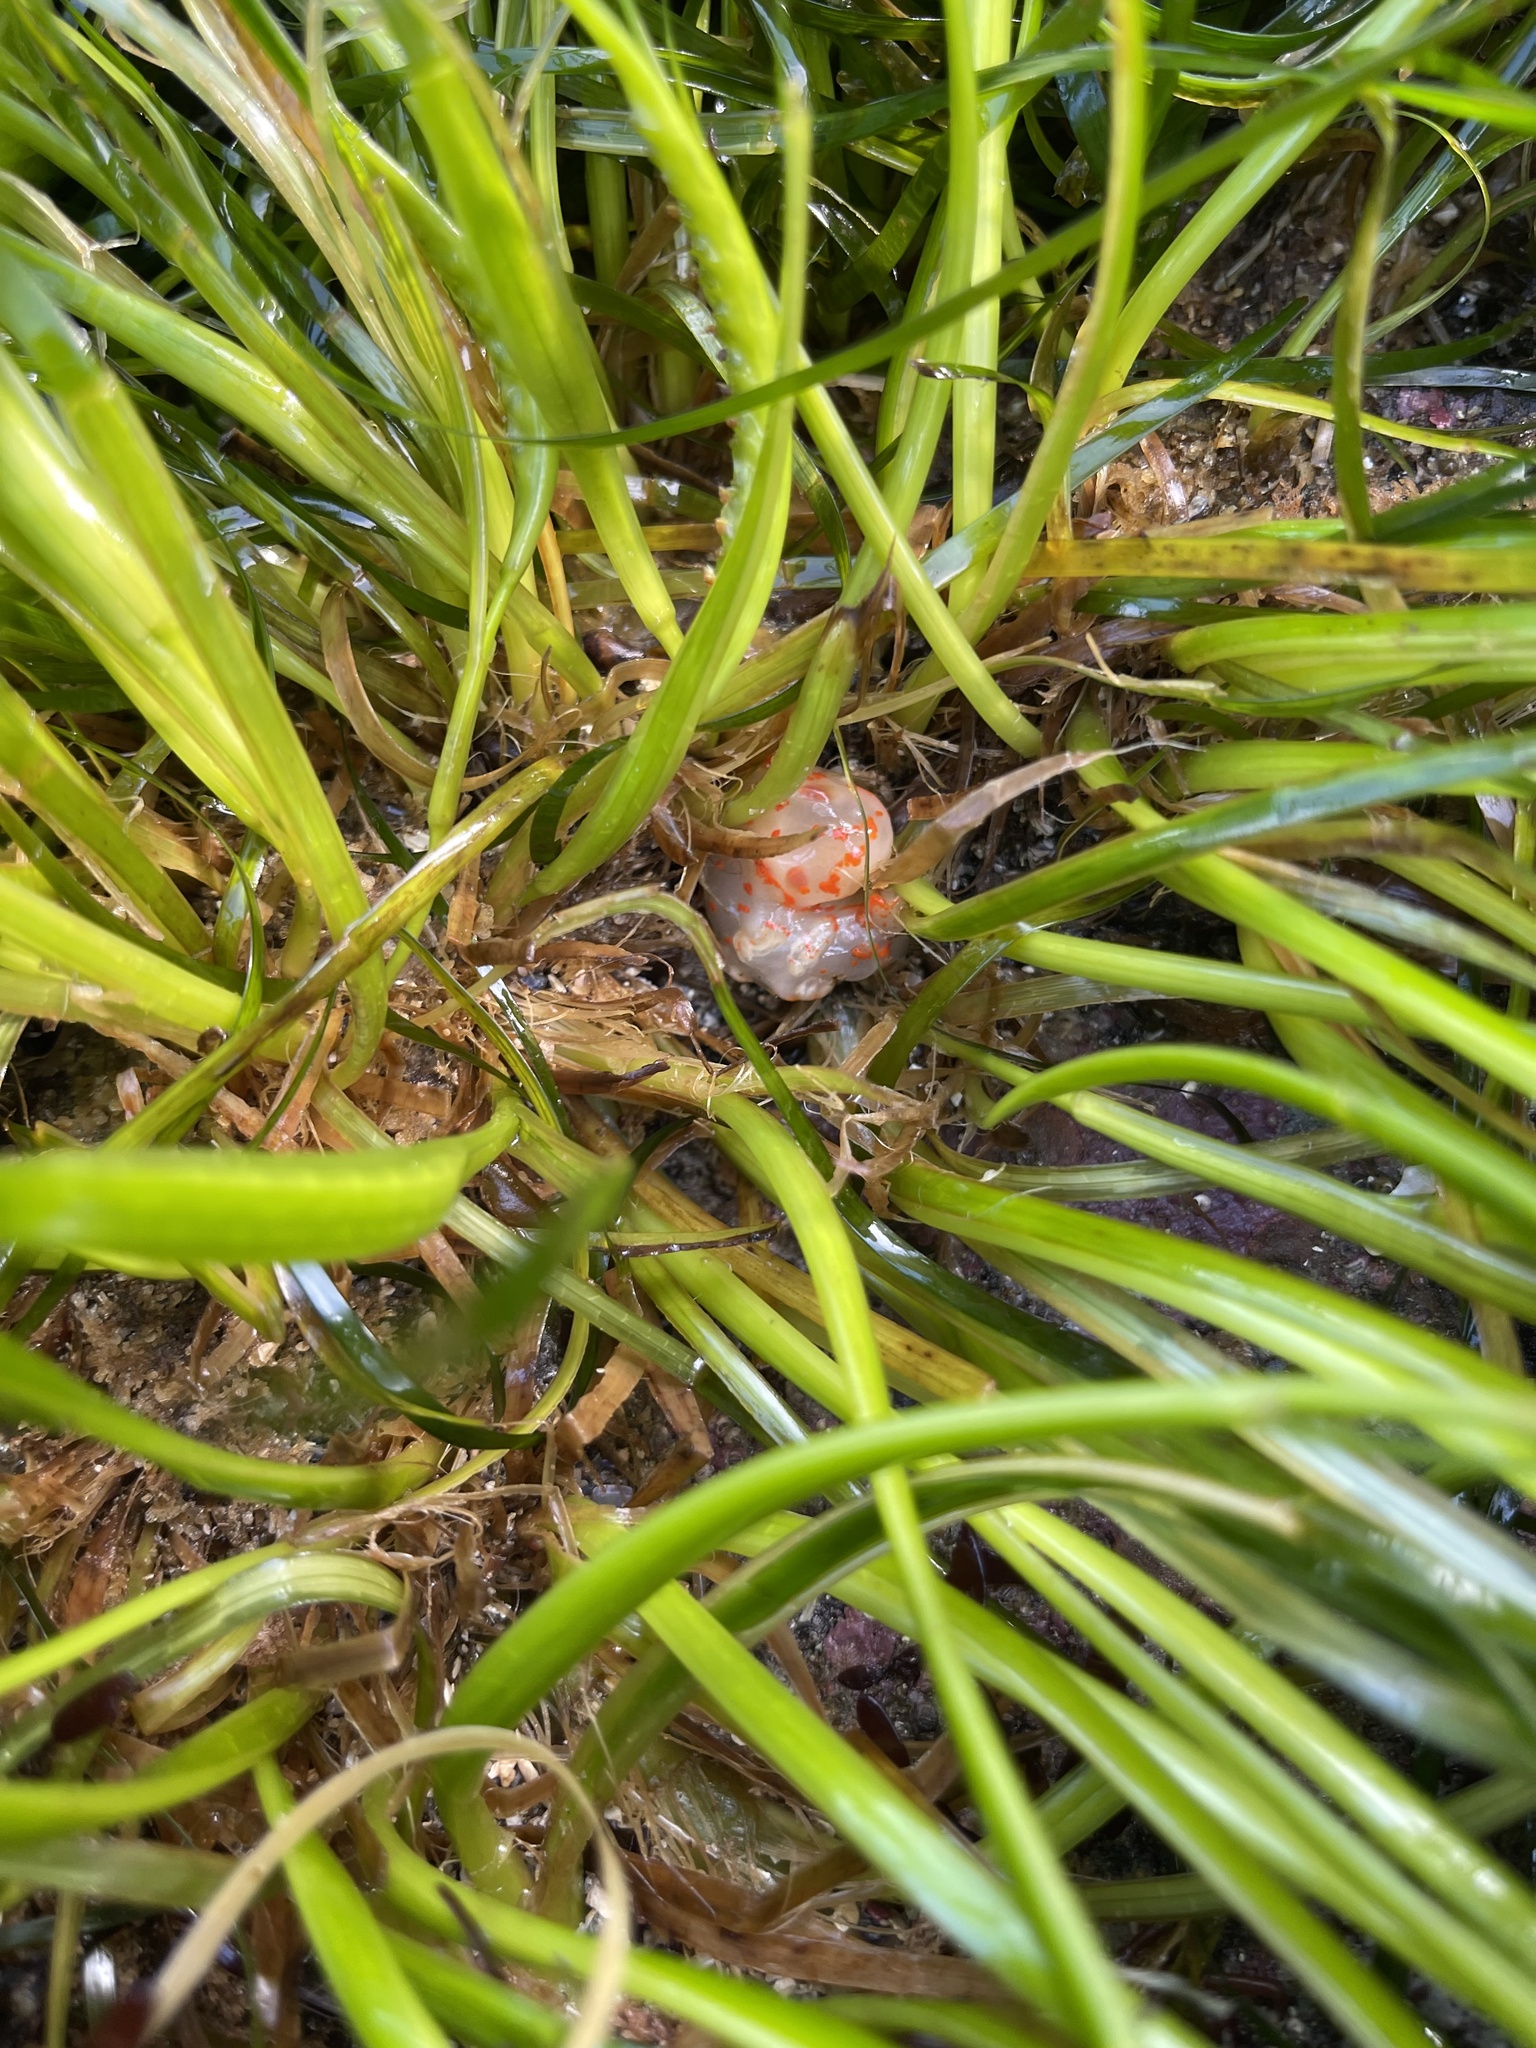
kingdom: Animalia
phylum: Mollusca
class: Gastropoda
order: Nudibranchia
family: Polyceridae
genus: Triopha
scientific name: Triopha catalinae
